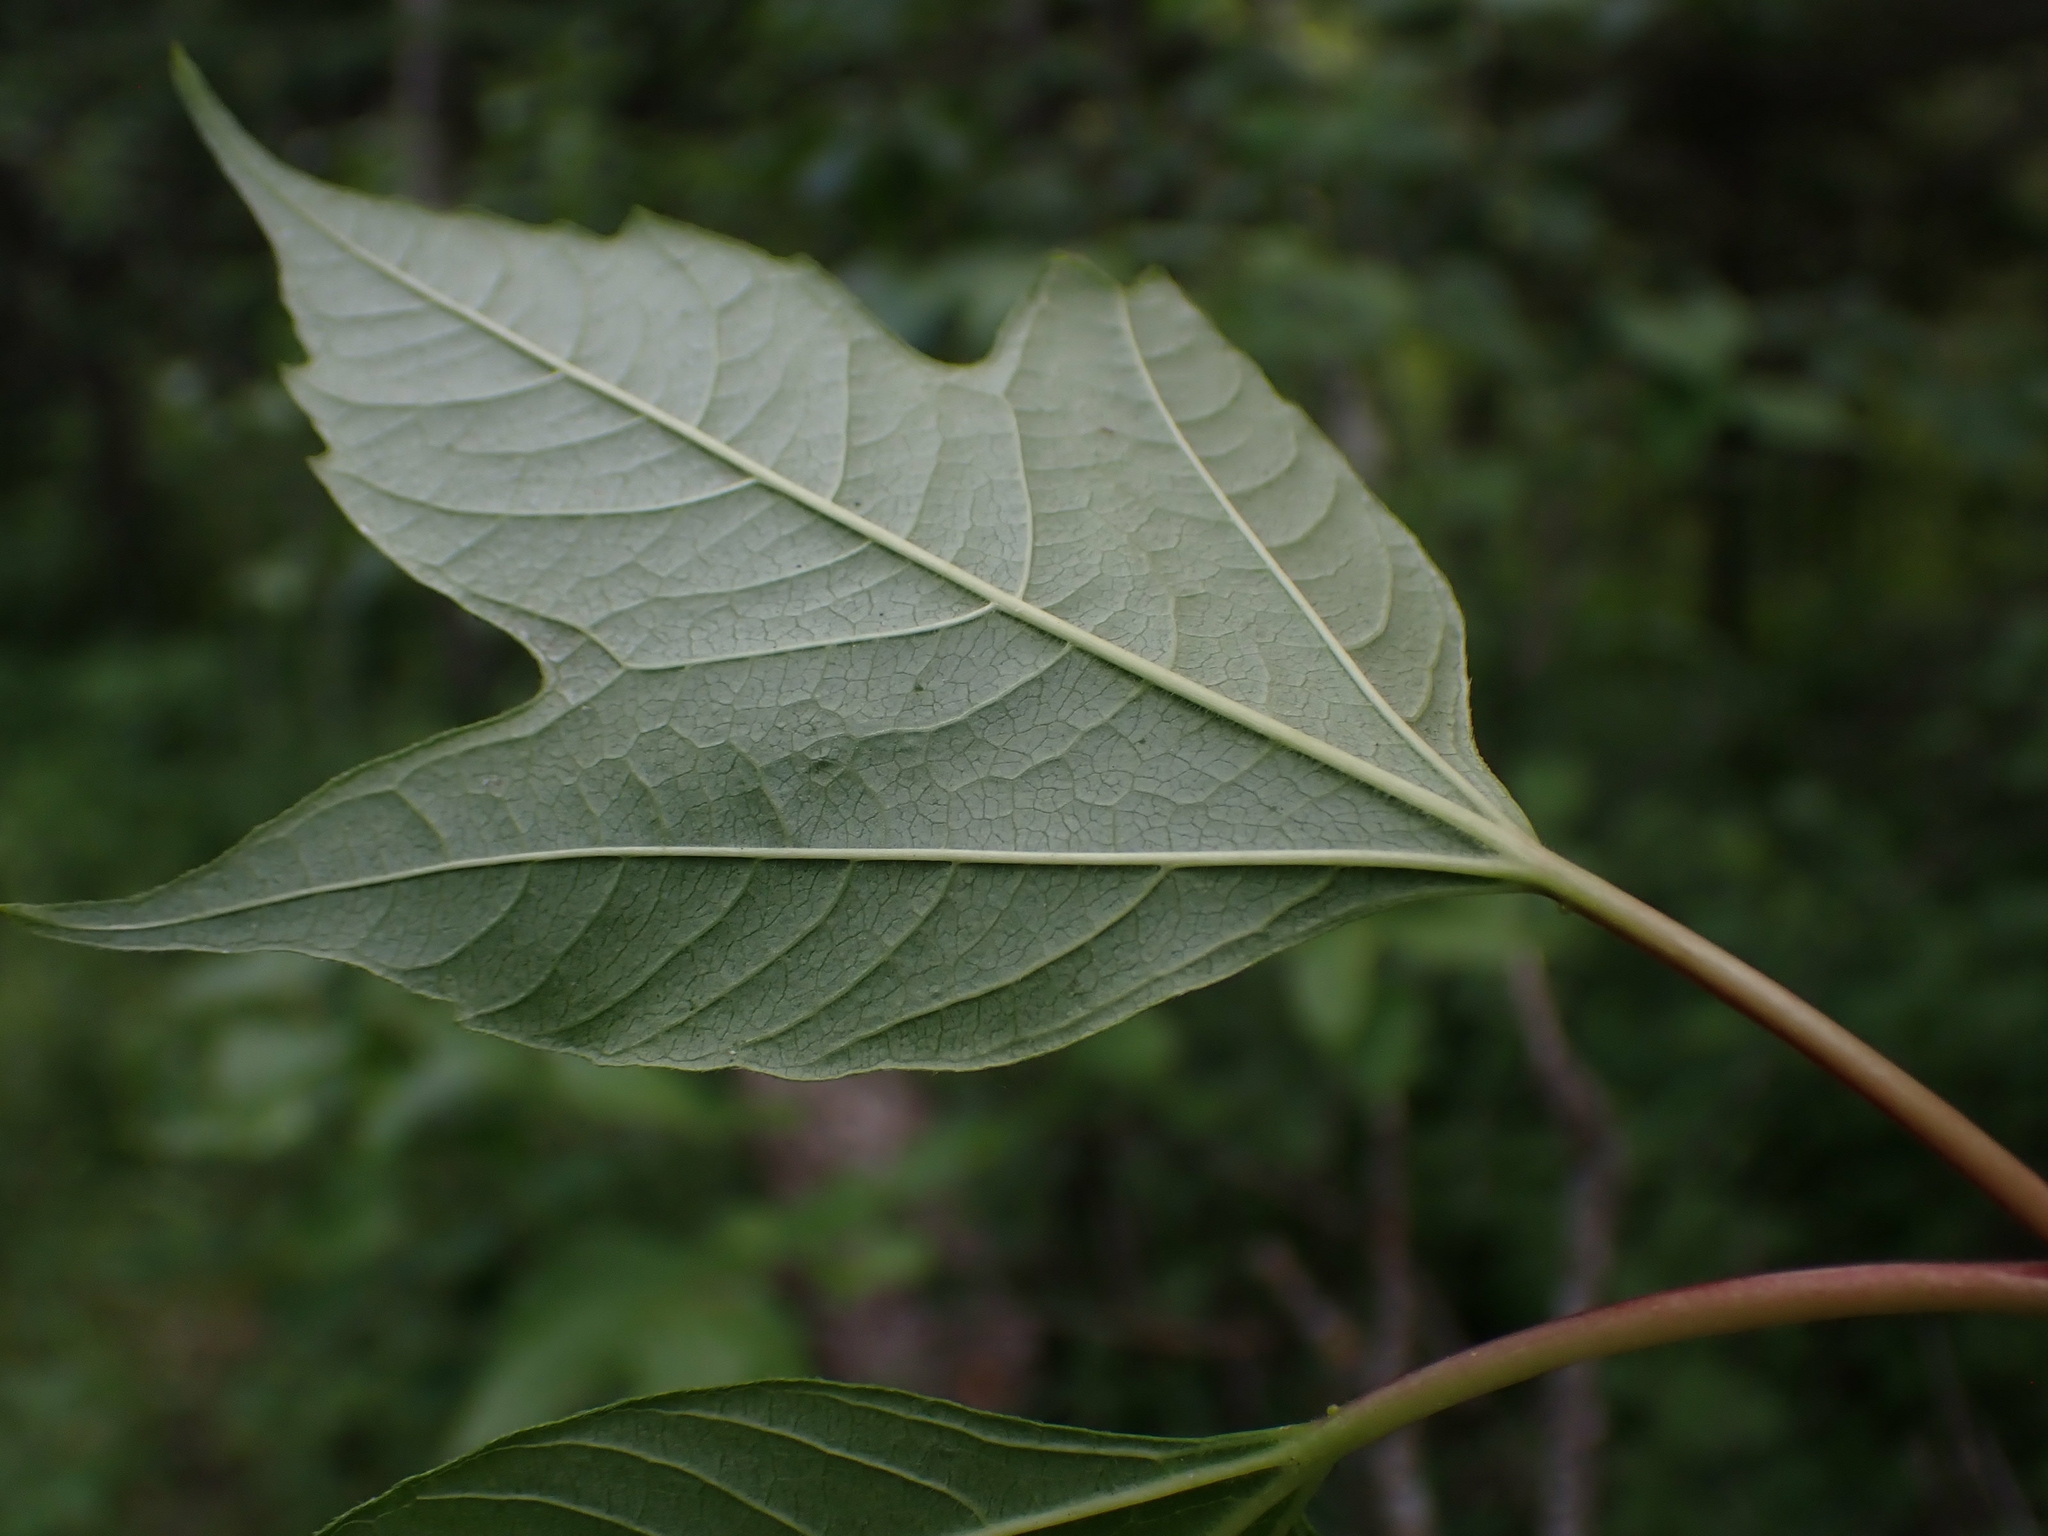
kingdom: Plantae
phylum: Tracheophyta
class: Magnoliopsida
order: Dipsacales
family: Viburnaceae
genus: Viburnum
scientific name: Viburnum trilobum
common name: American cranberrybush
